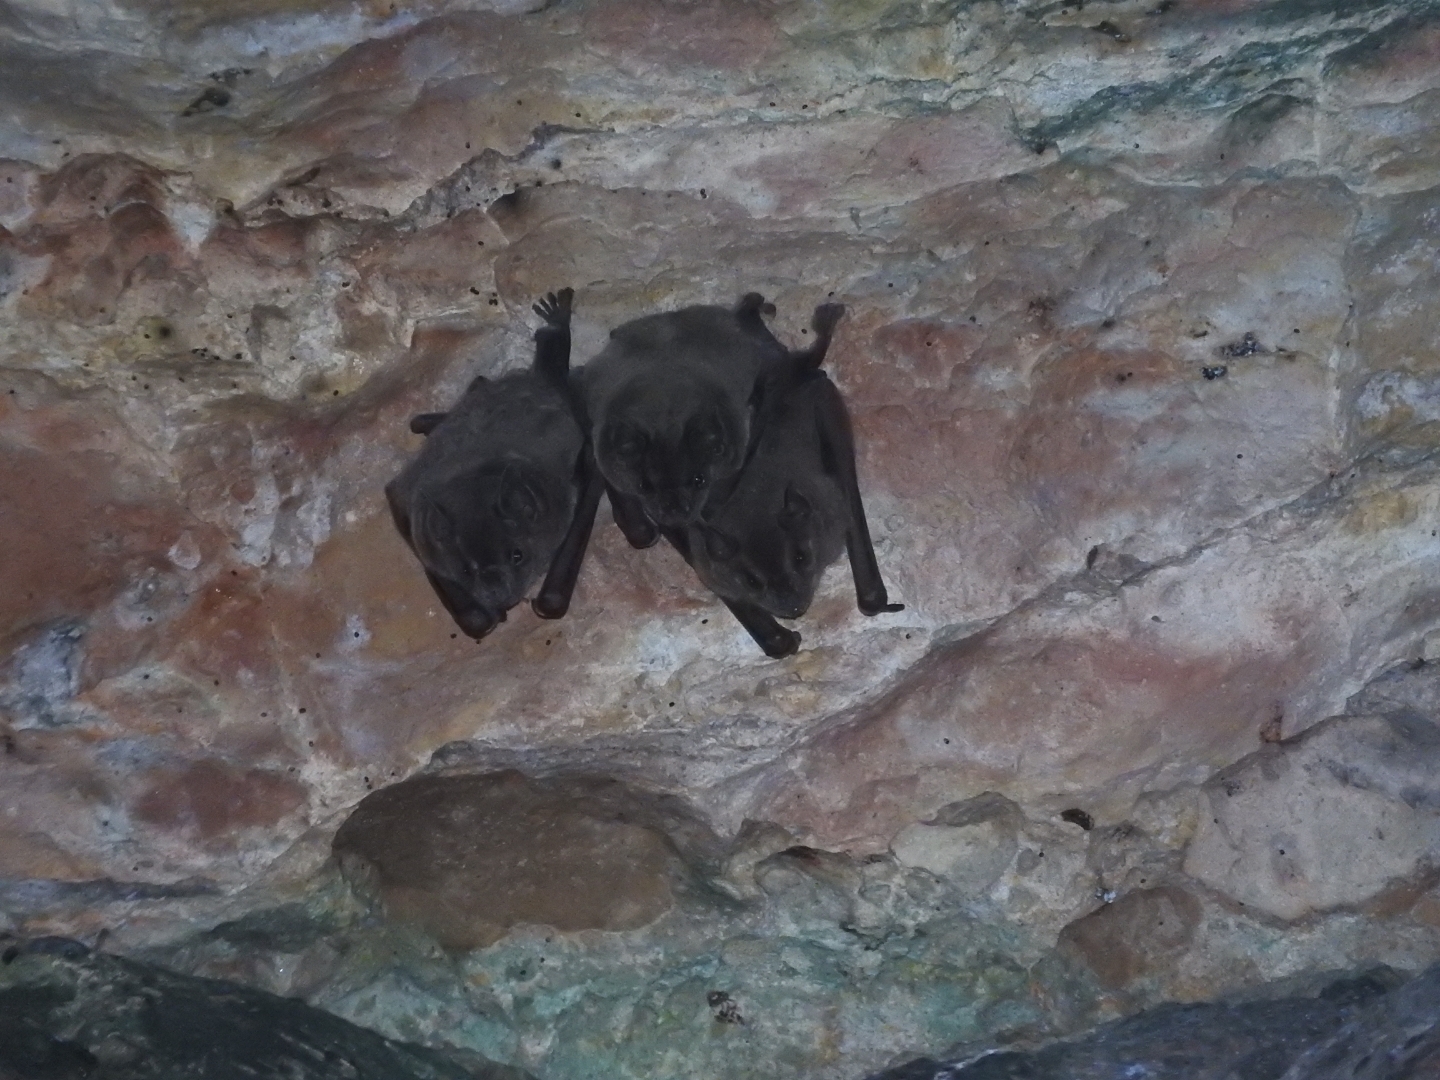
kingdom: Animalia
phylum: Chordata
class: Mammalia
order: Chiroptera
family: Phyllostomidae
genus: Artibeus
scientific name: Artibeus jamaicensis
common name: Jamaican fruit-eating bat
